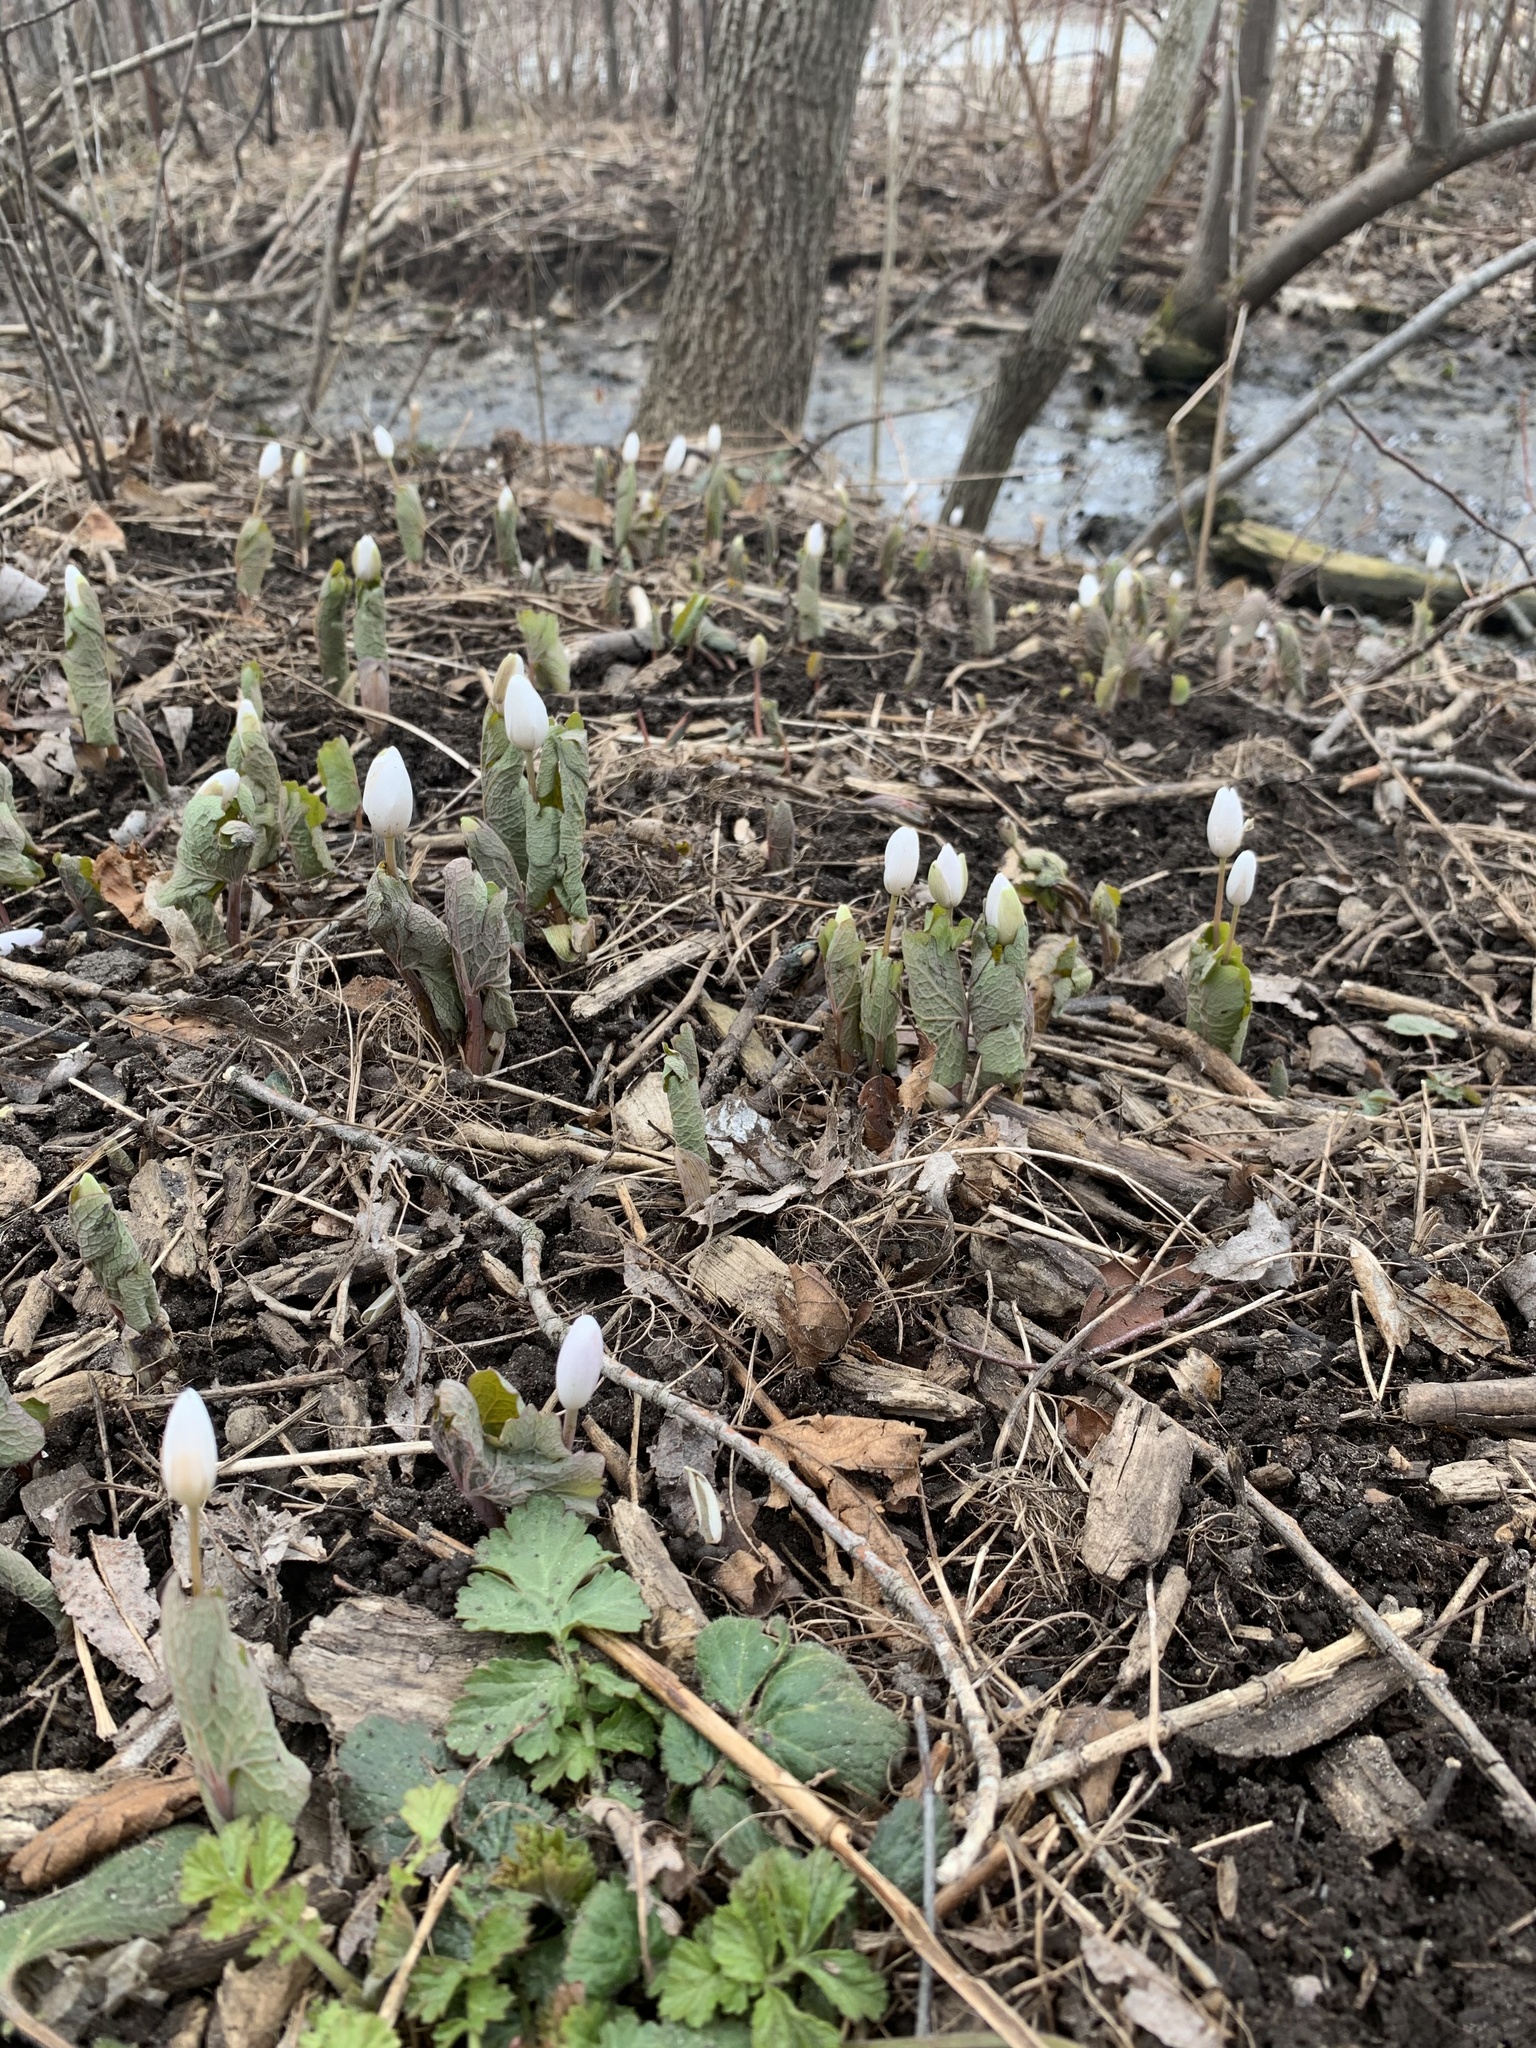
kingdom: Plantae
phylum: Tracheophyta
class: Magnoliopsida
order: Ranunculales
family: Papaveraceae
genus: Sanguinaria
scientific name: Sanguinaria canadensis
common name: Bloodroot
